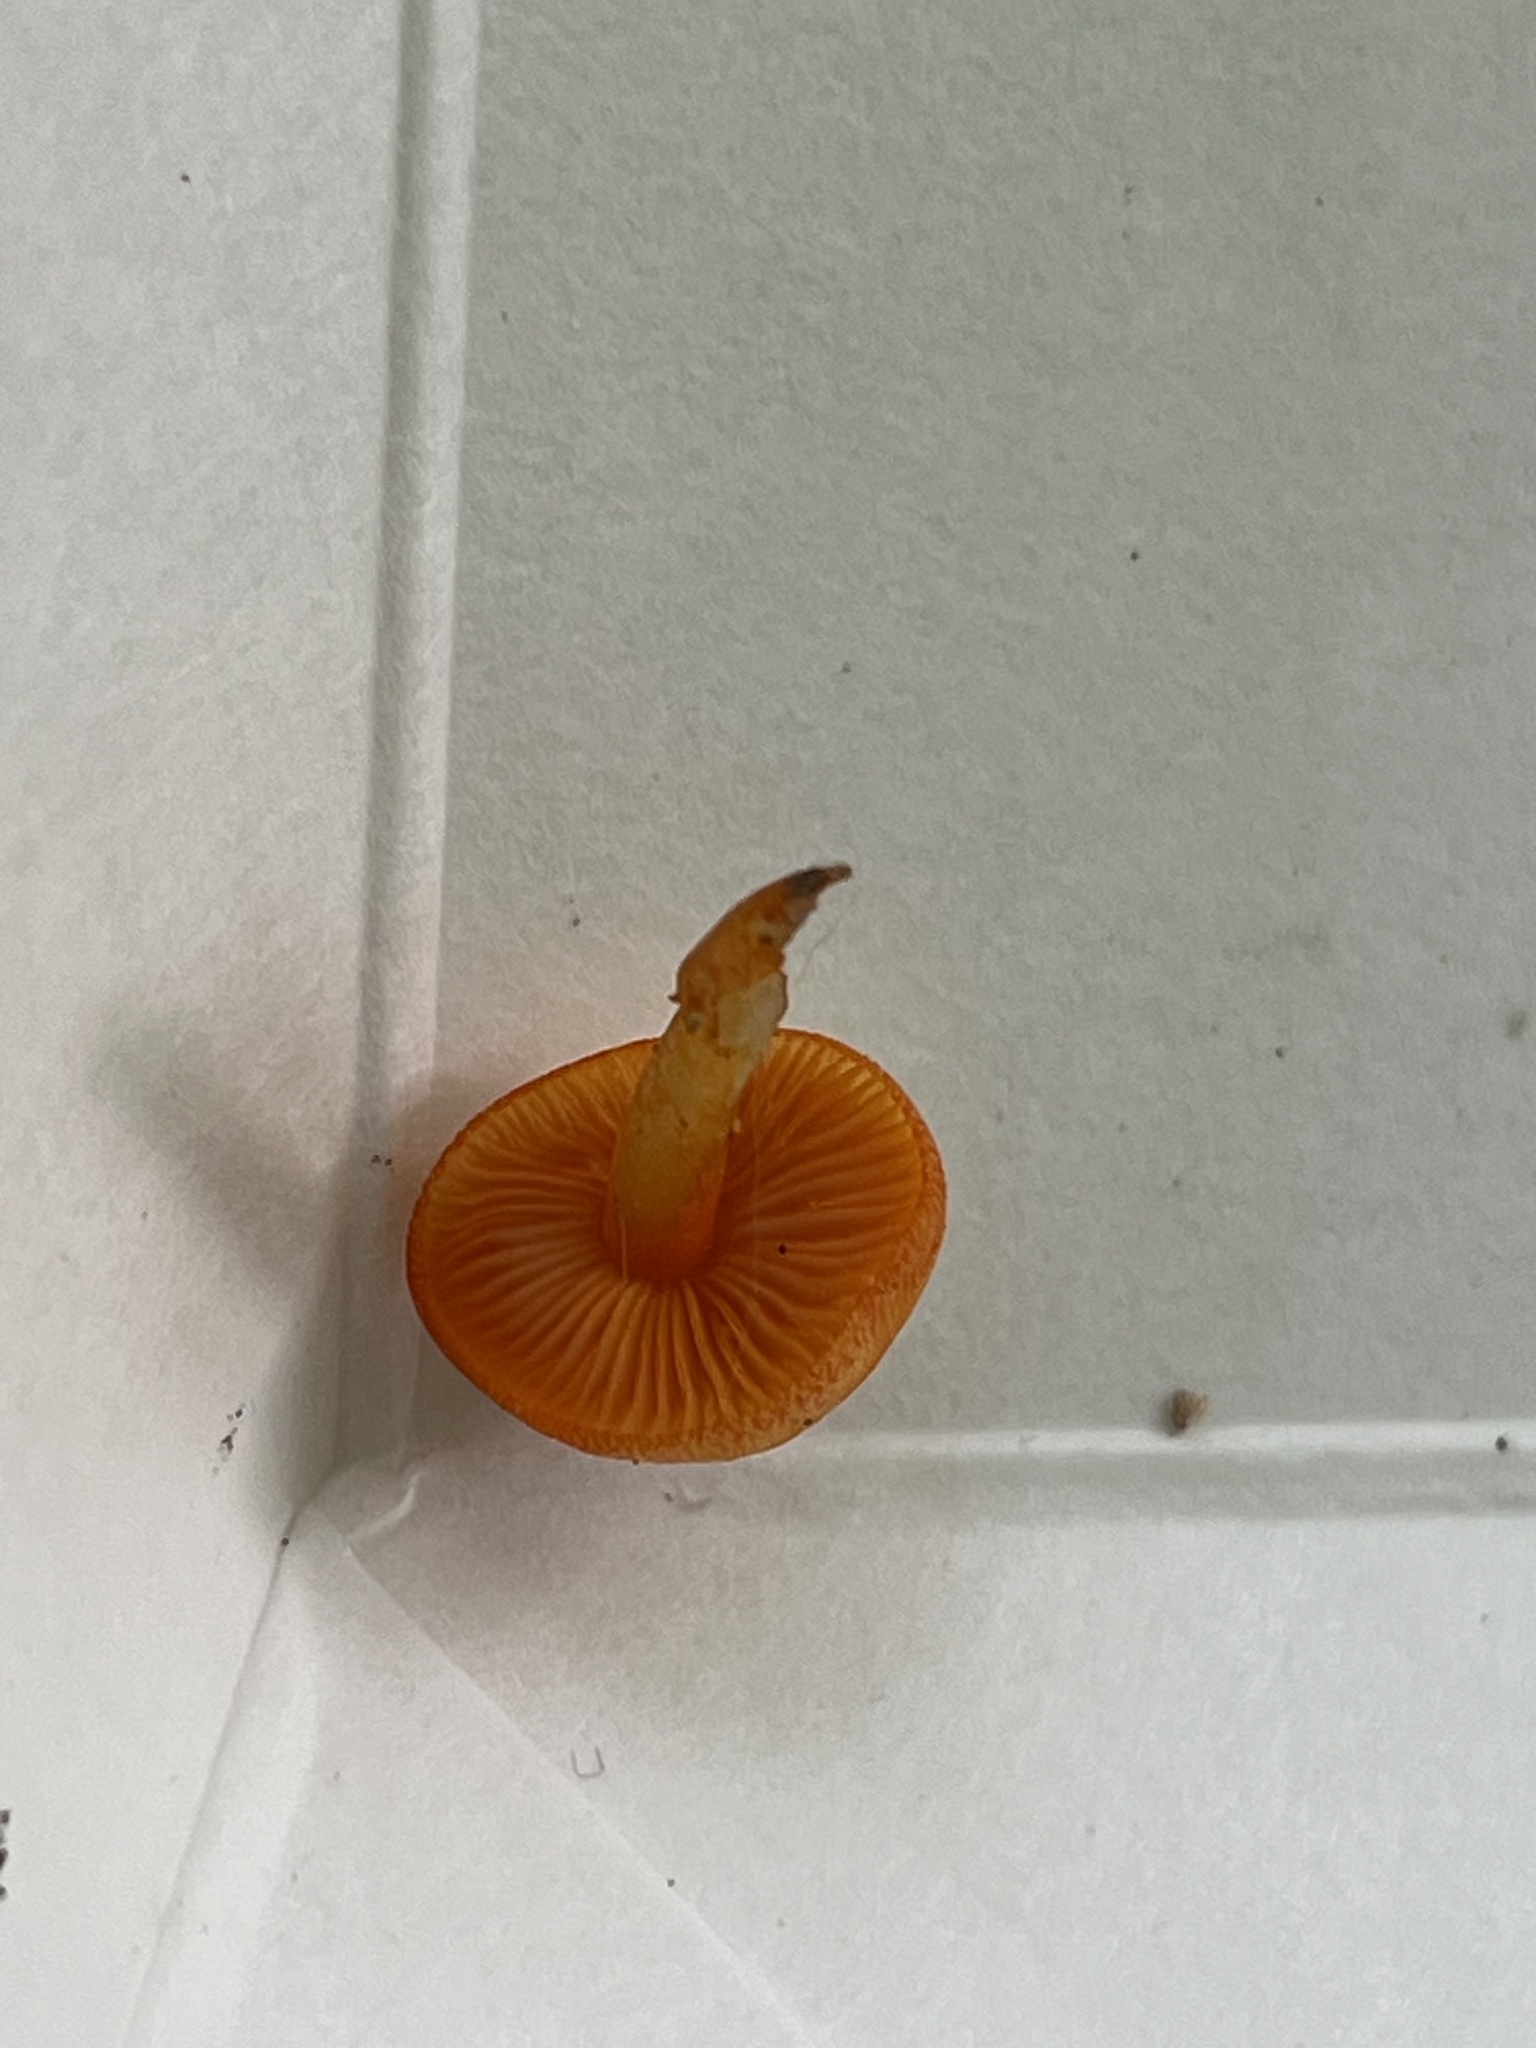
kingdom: Fungi
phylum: Basidiomycota
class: Agaricomycetes
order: Agaricales
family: Mycenaceae
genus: Mycena
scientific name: Mycena leaiana
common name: Orange mycena
